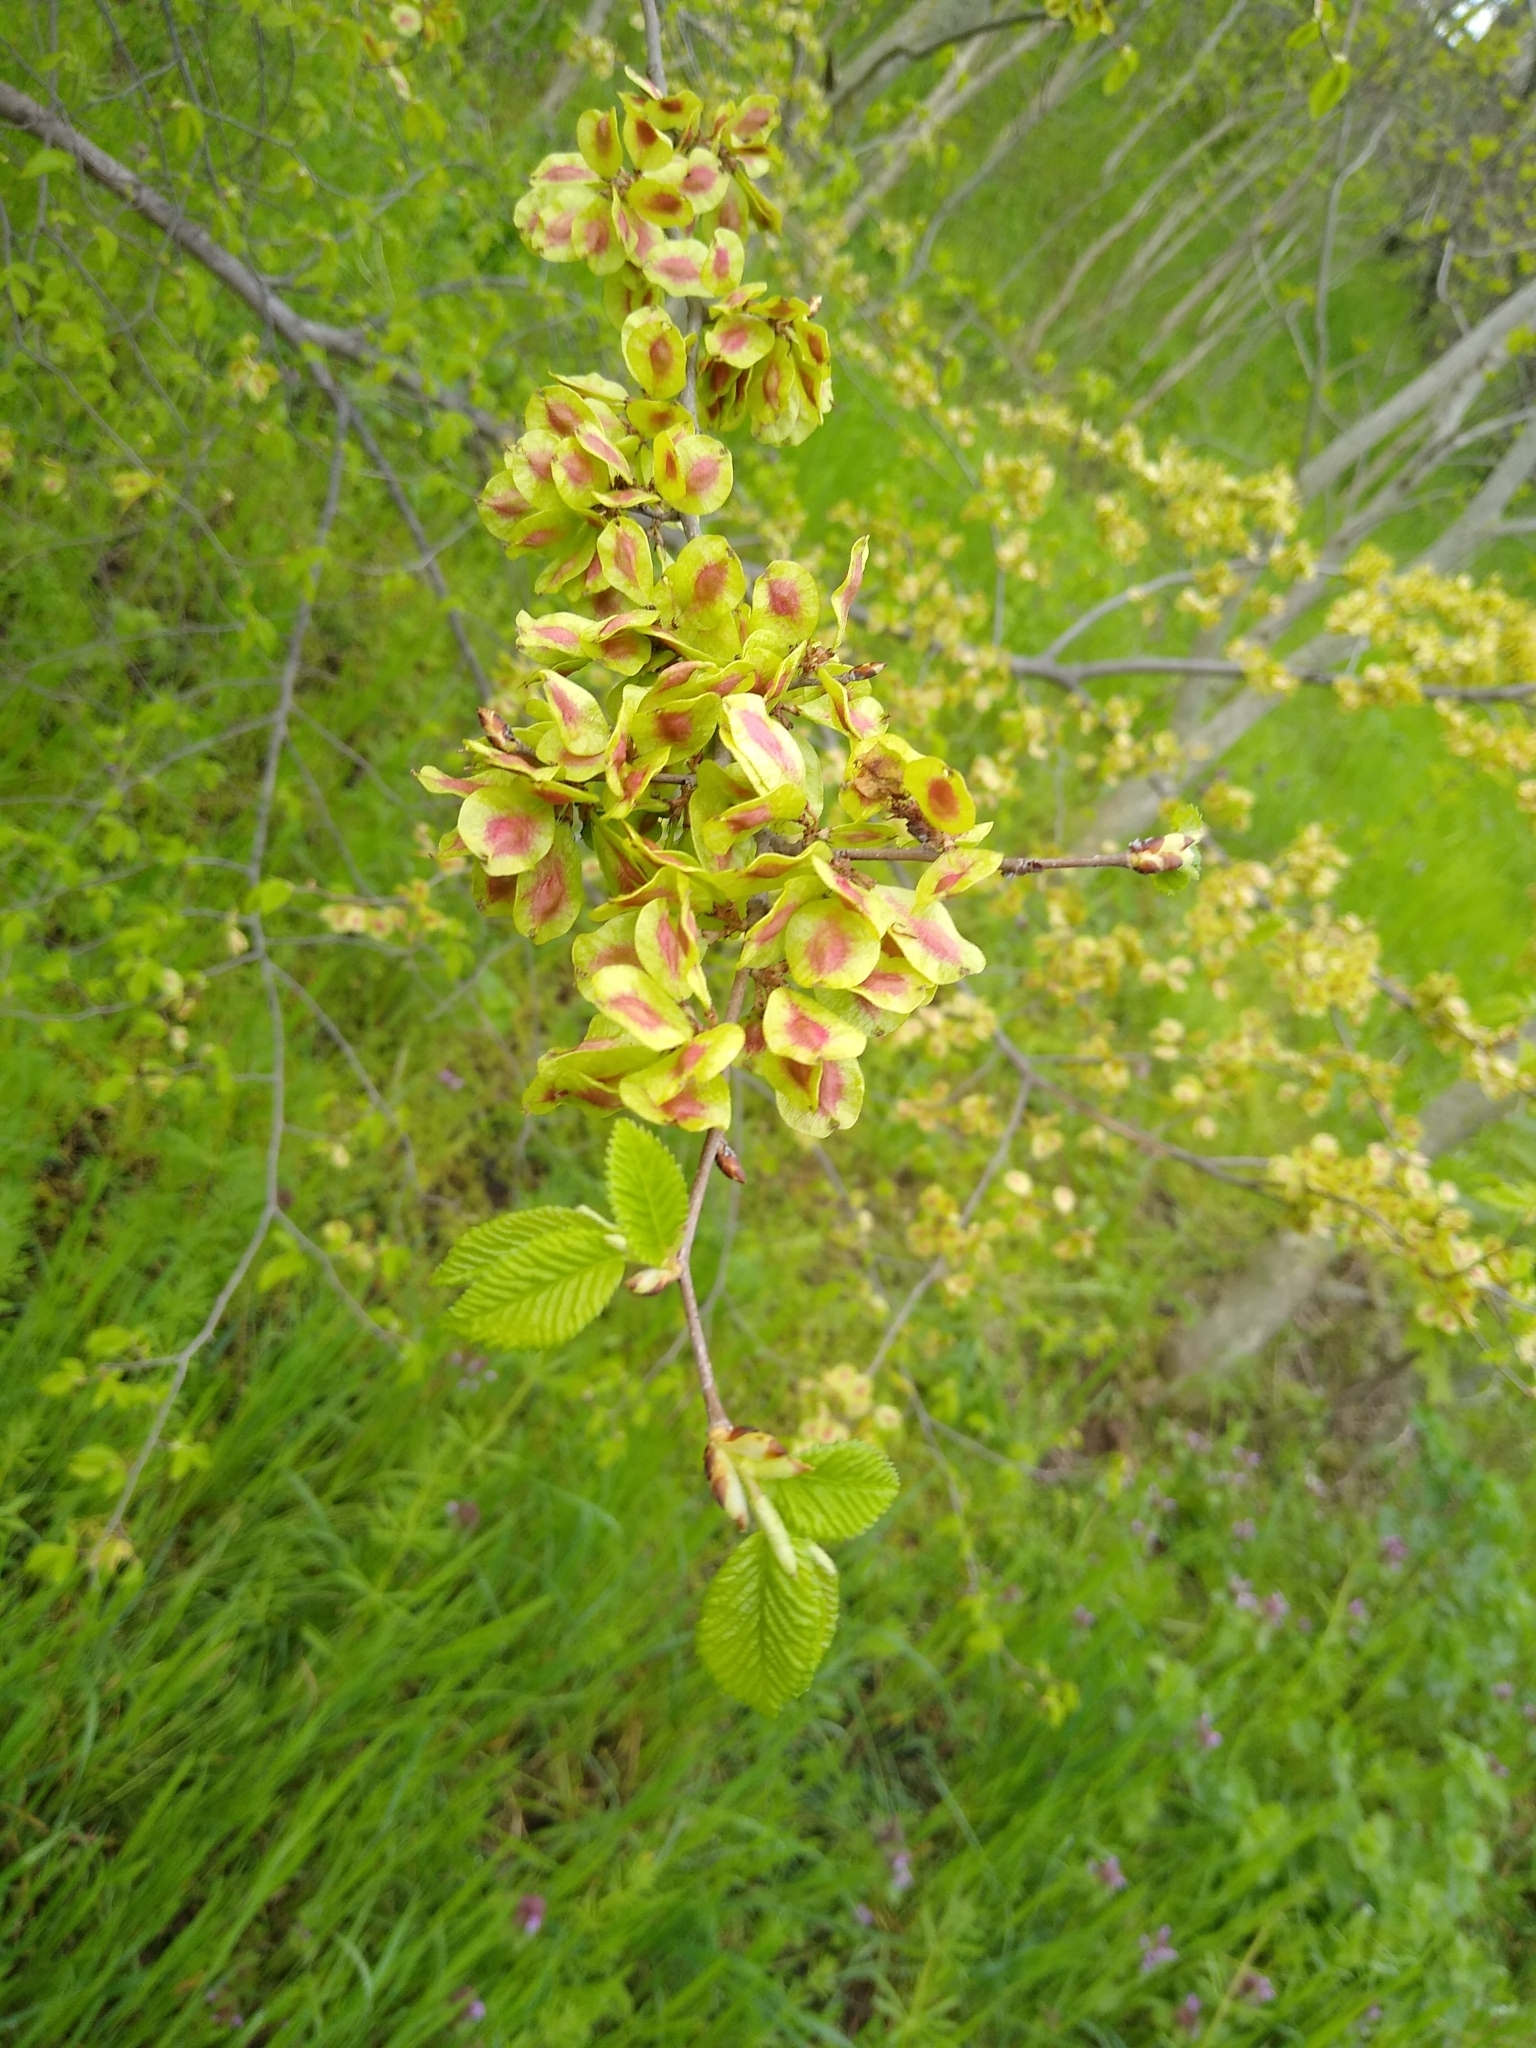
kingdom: Plantae
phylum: Tracheophyta
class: Magnoliopsida
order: Rosales
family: Ulmaceae
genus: Ulmus
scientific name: Ulmus minor
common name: Small-leaved elm
